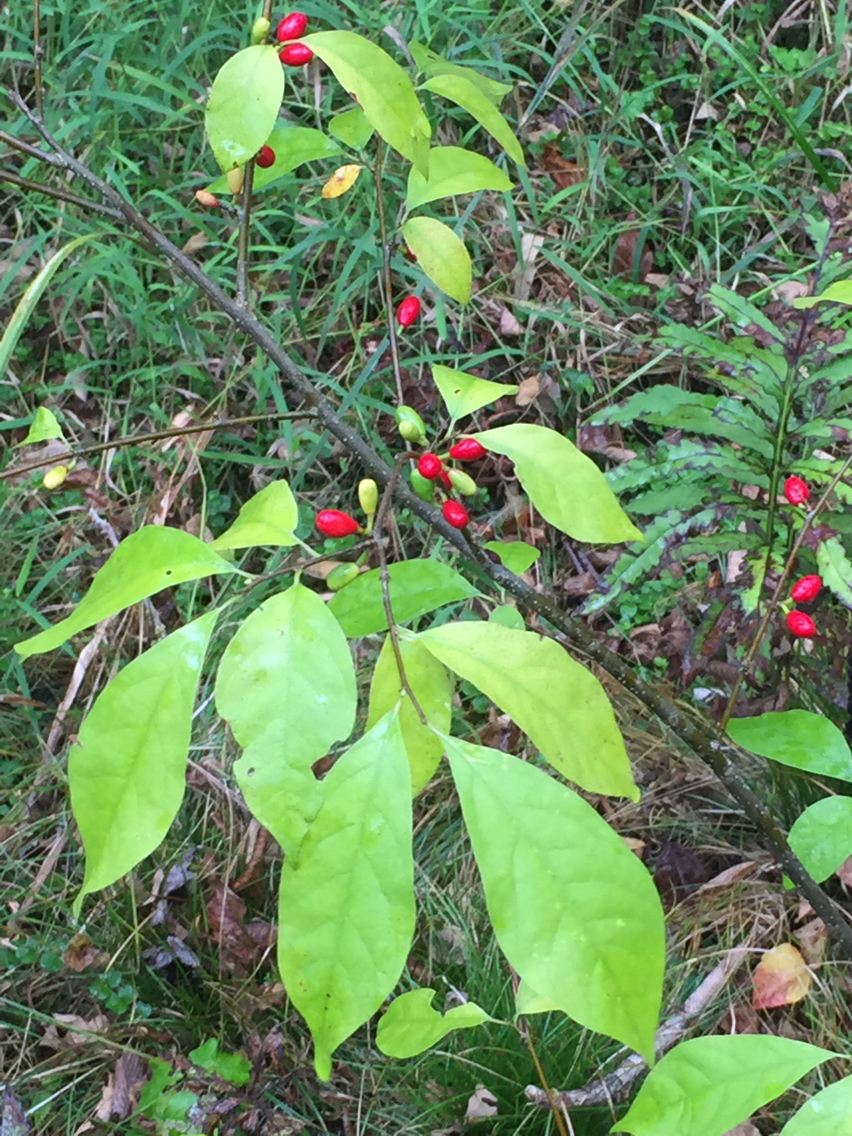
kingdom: Plantae
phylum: Tracheophyta
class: Magnoliopsida
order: Laurales
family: Lauraceae
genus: Lindera
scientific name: Lindera benzoin
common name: Spicebush
